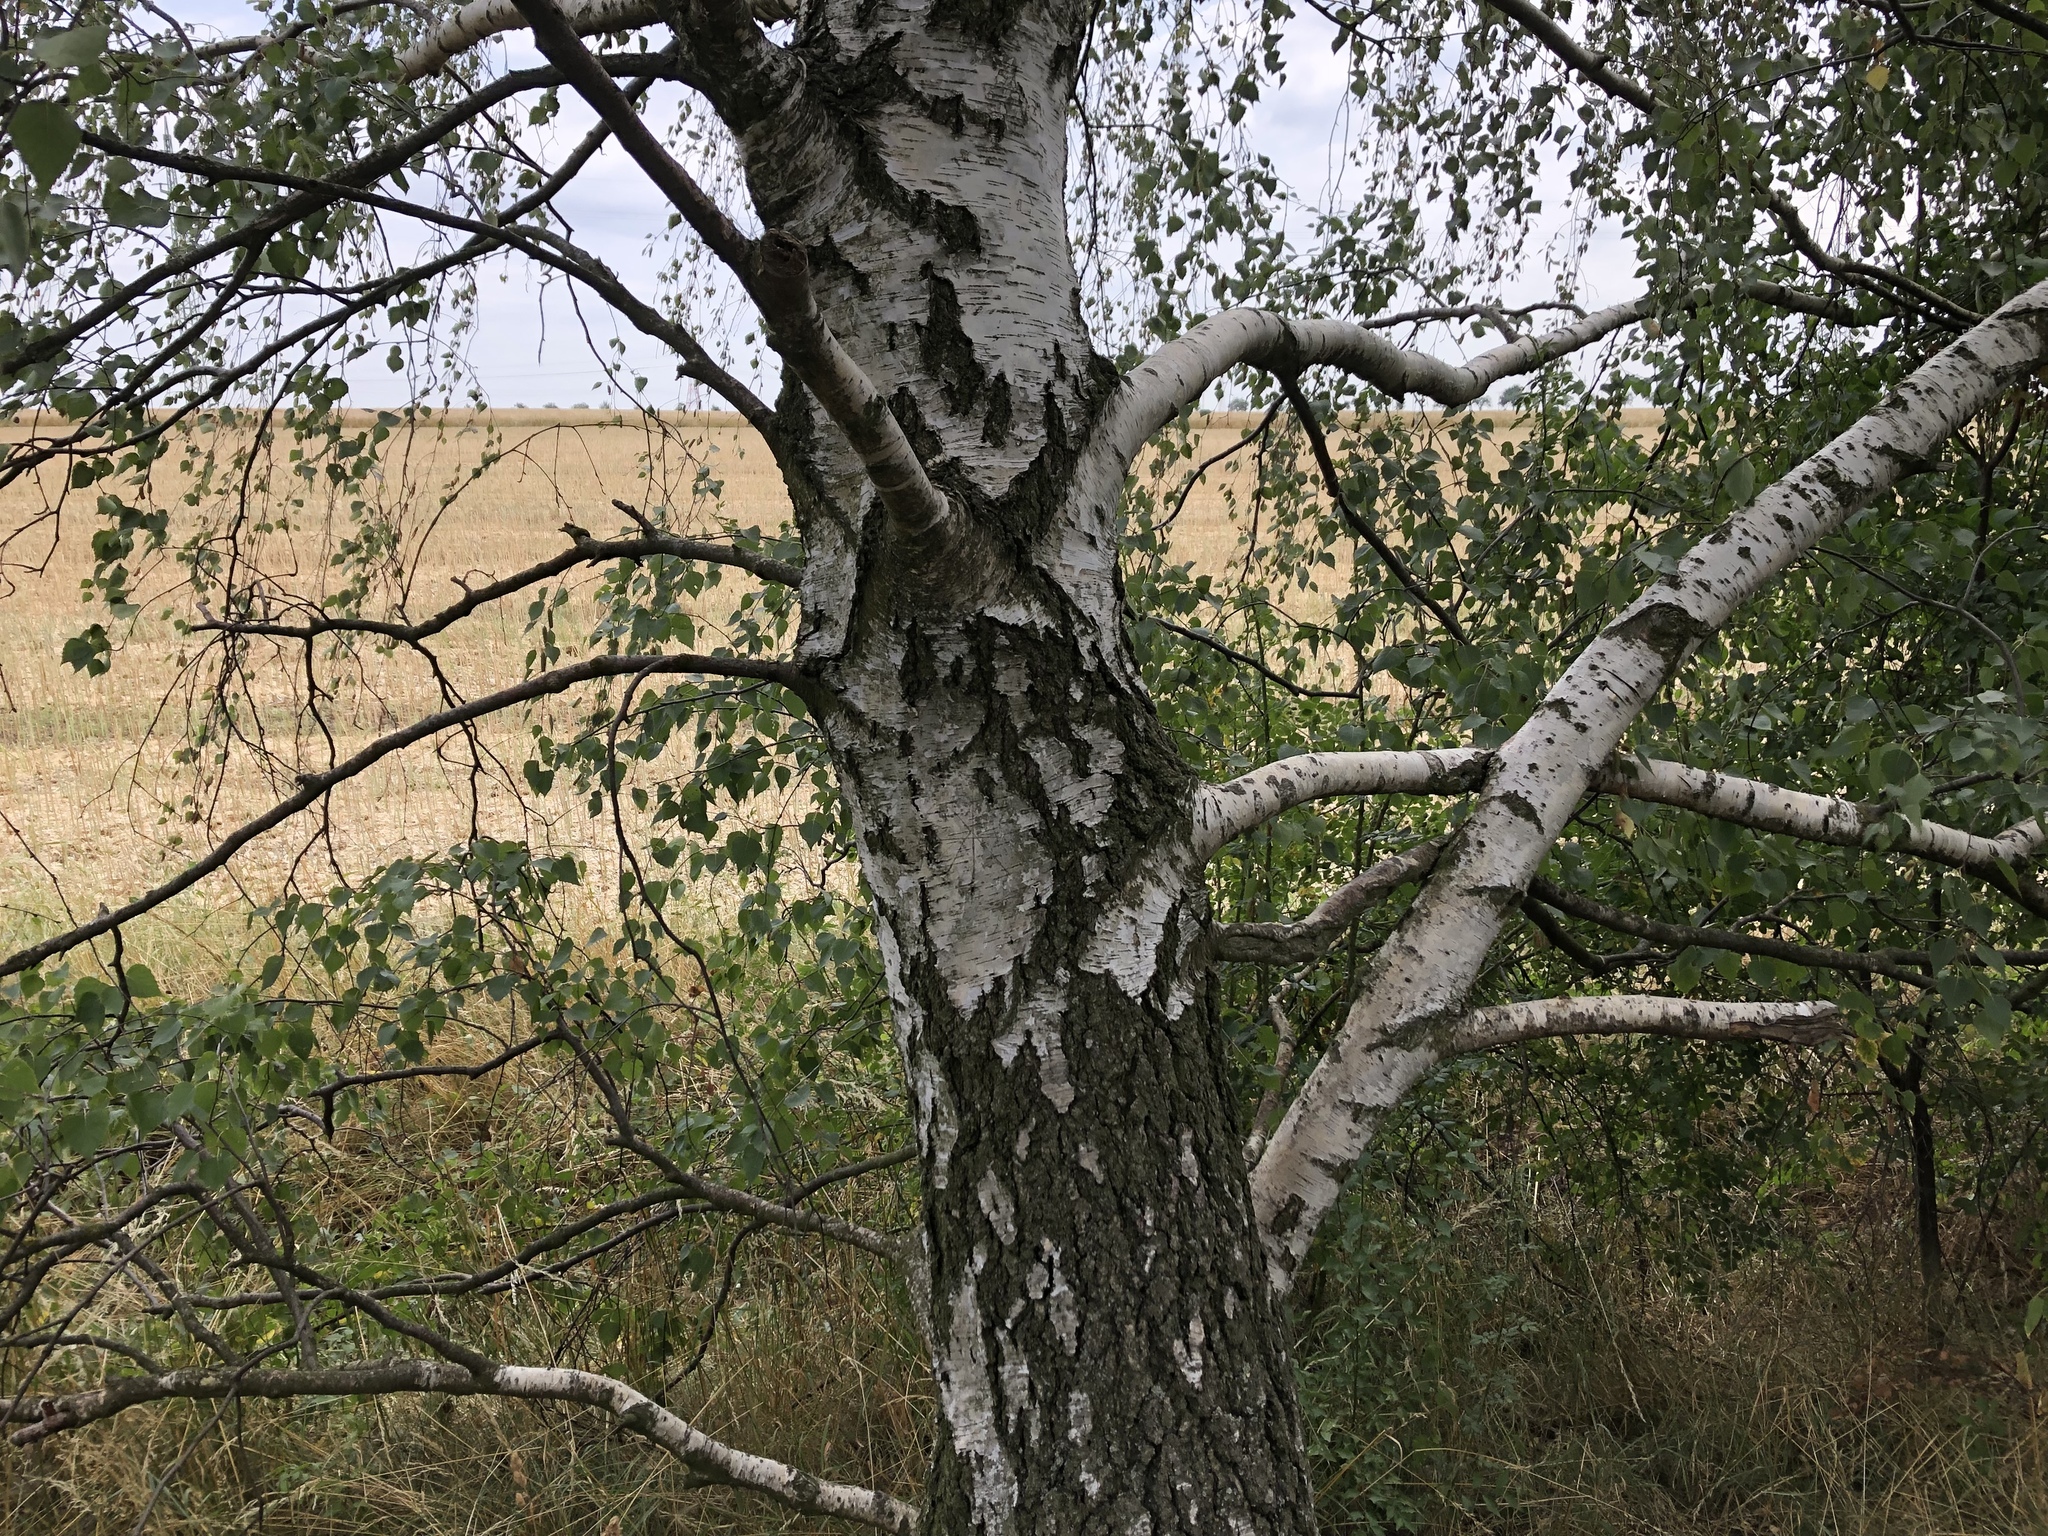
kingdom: Plantae
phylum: Tracheophyta
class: Magnoliopsida
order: Fagales
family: Betulaceae
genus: Betula
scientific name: Betula pendula
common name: Silver birch
